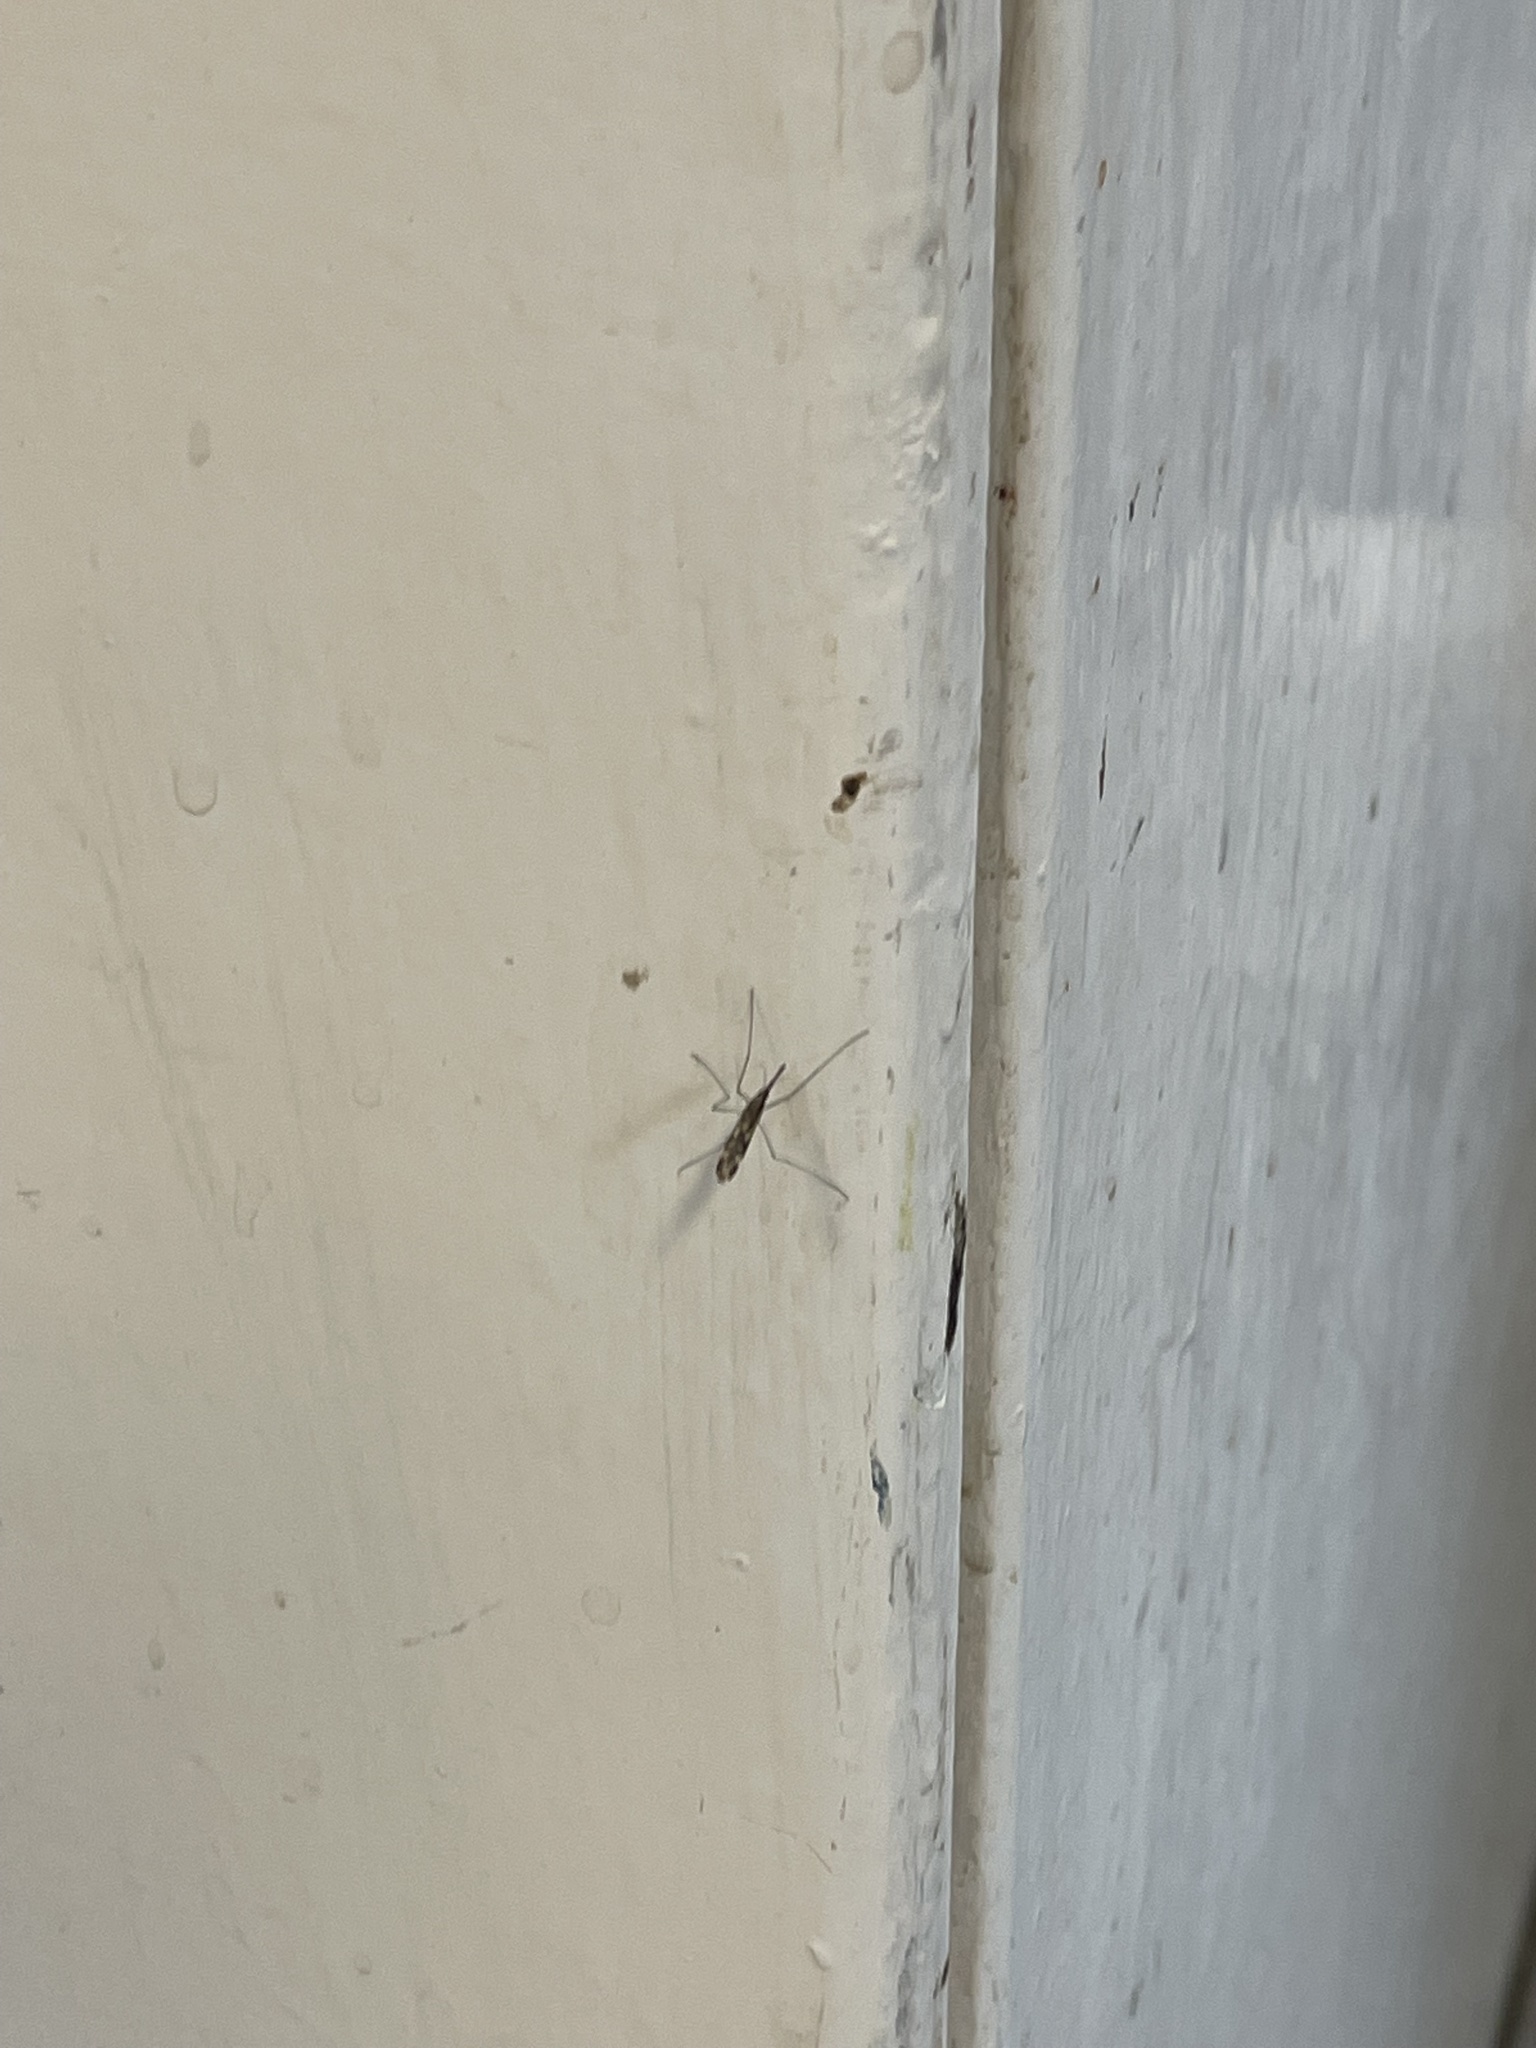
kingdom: Animalia
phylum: Arthropoda
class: Insecta
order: Diptera
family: Culicidae
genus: Anopheles
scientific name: Anopheles punctipennis
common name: Woodland malaria mosquito
